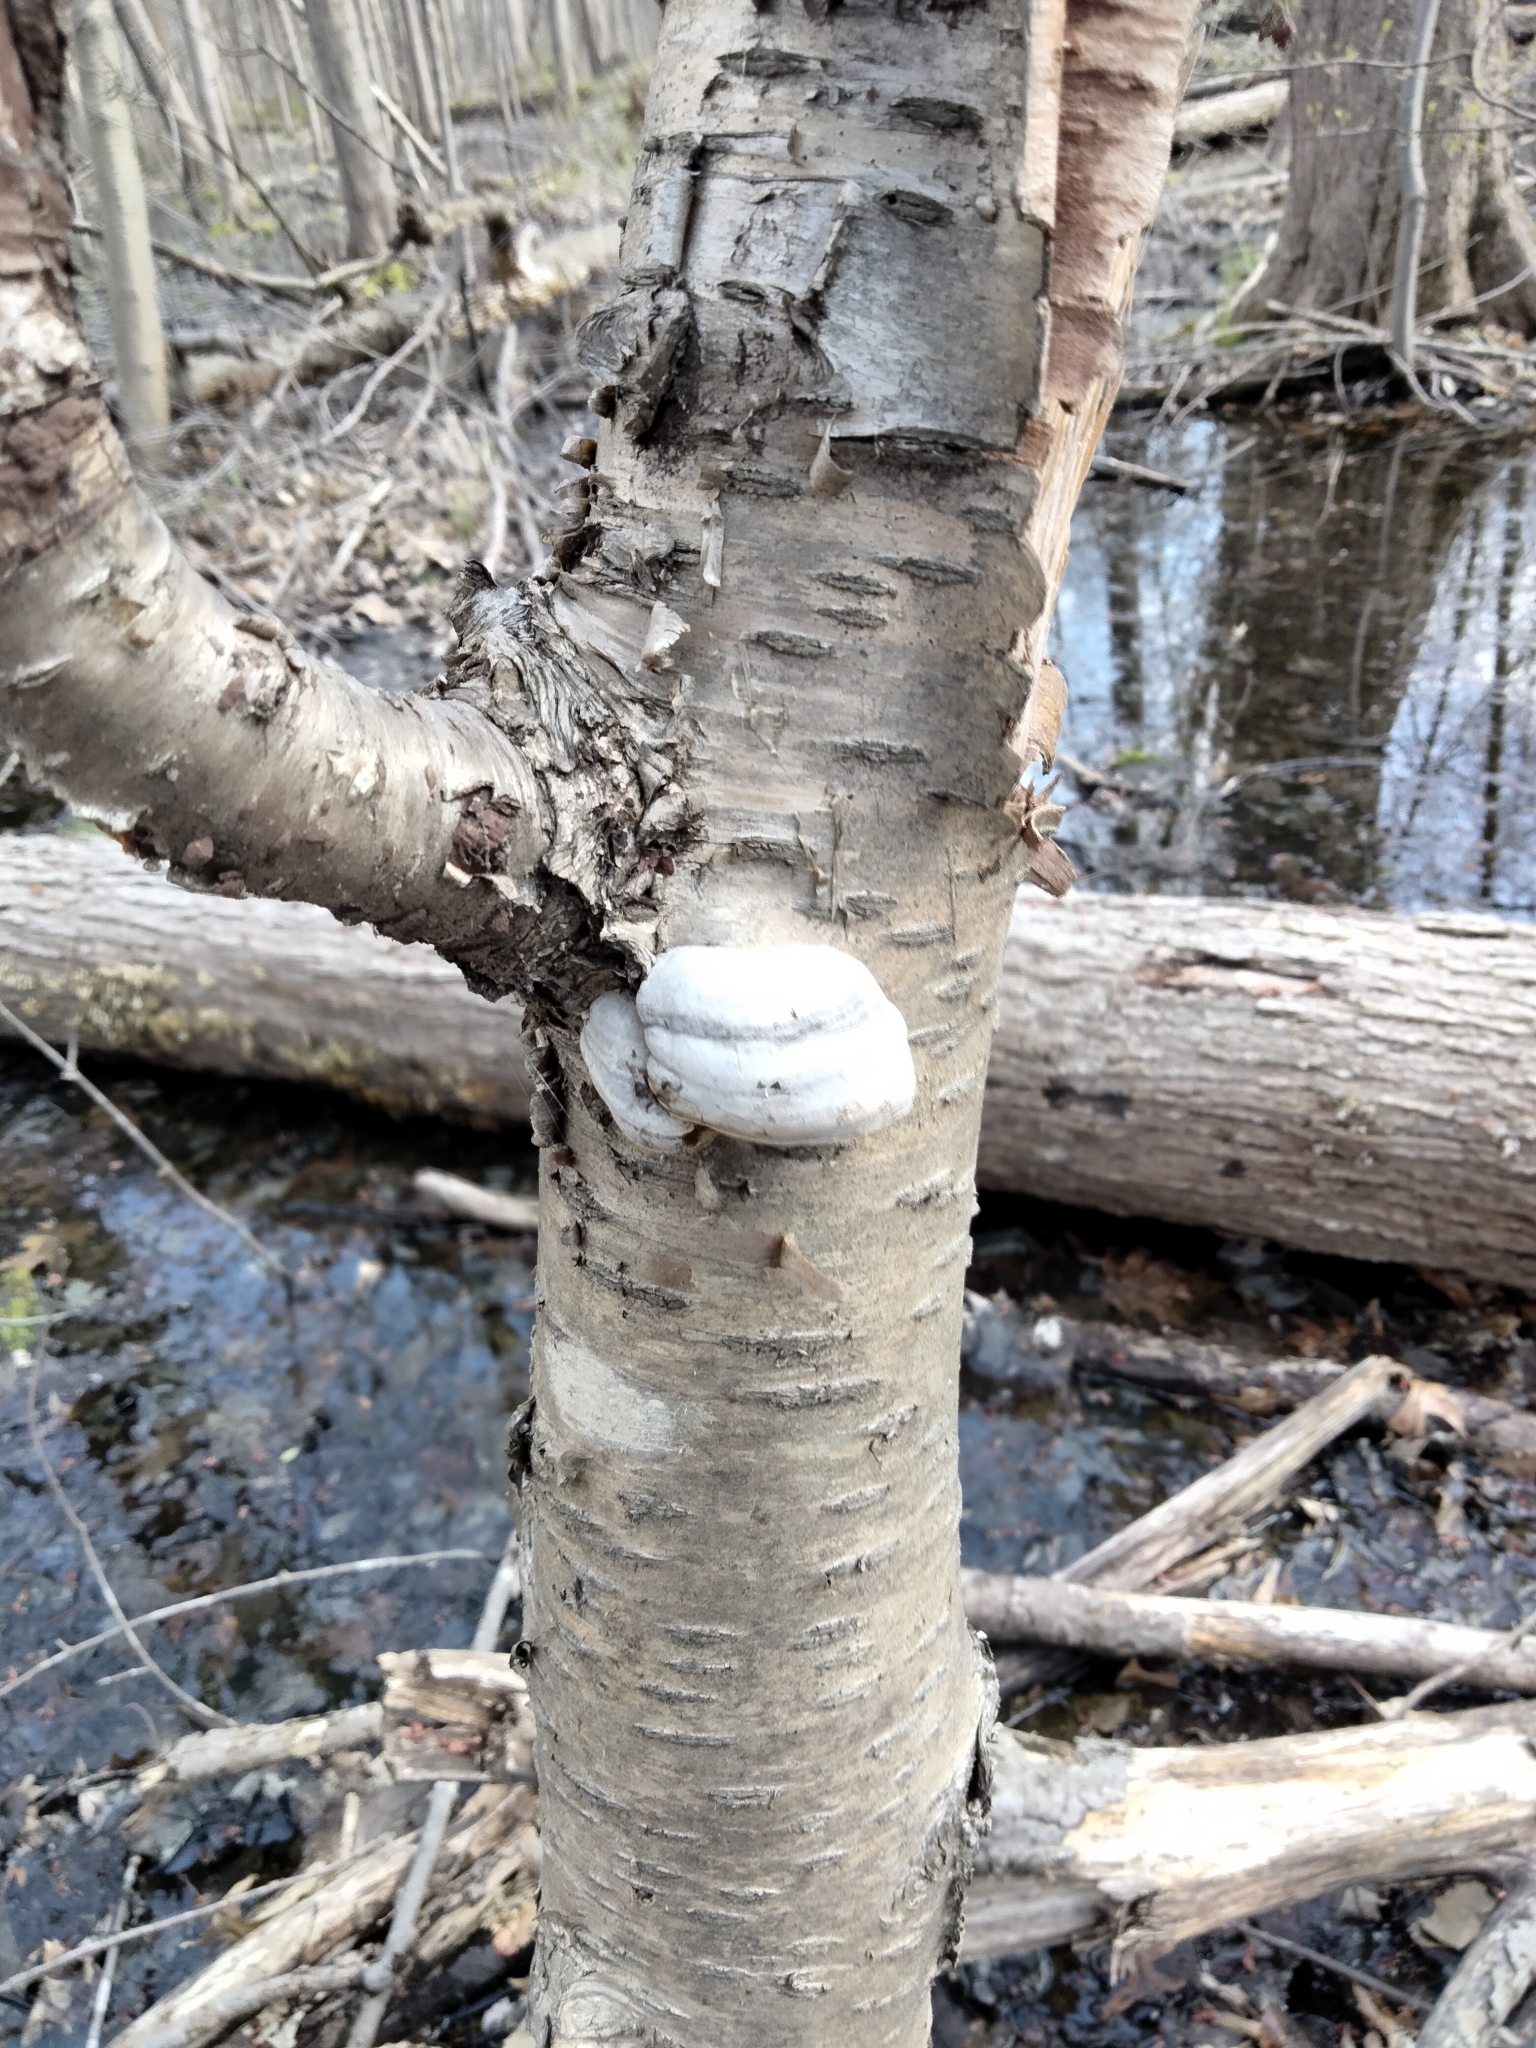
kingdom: Fungi
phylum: Basidiomycota
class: Agaricomycetes
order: Polyporales
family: Polyporaceae
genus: Fomes
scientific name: Fomes fomentarius
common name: Hoof fungus
